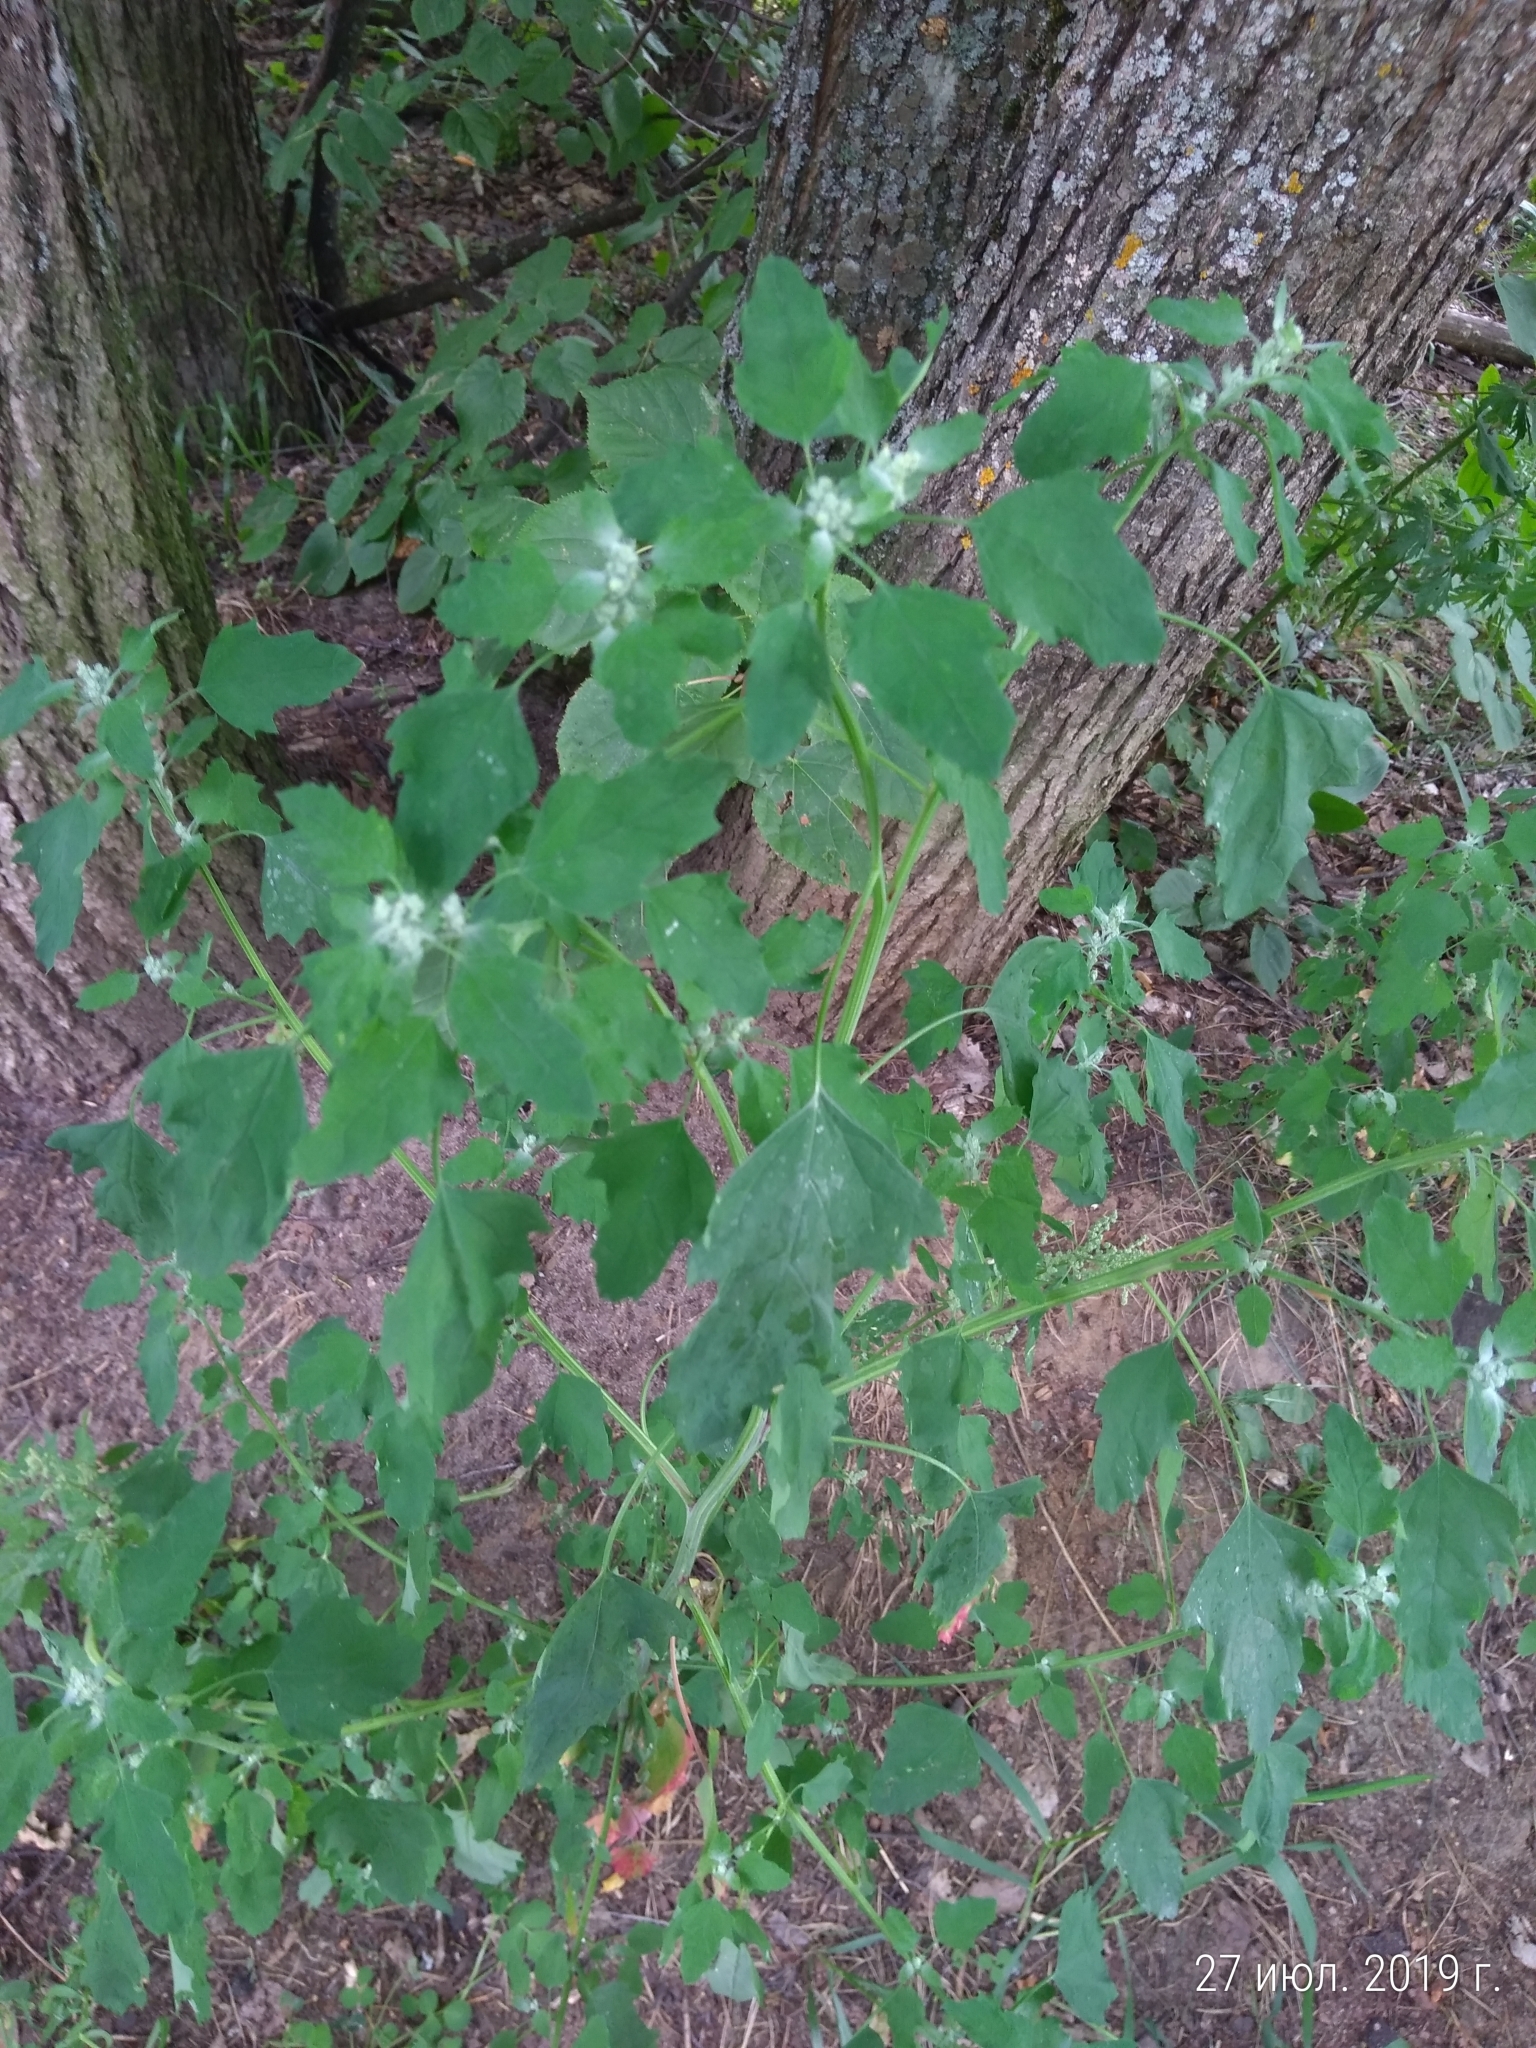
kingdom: Plantae
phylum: Tracheophyta
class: Magnoliopsida
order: Caryophyllales
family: Amaranthaceae
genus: Chenopodium
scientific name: Chenopodium album
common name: Fat-hen
